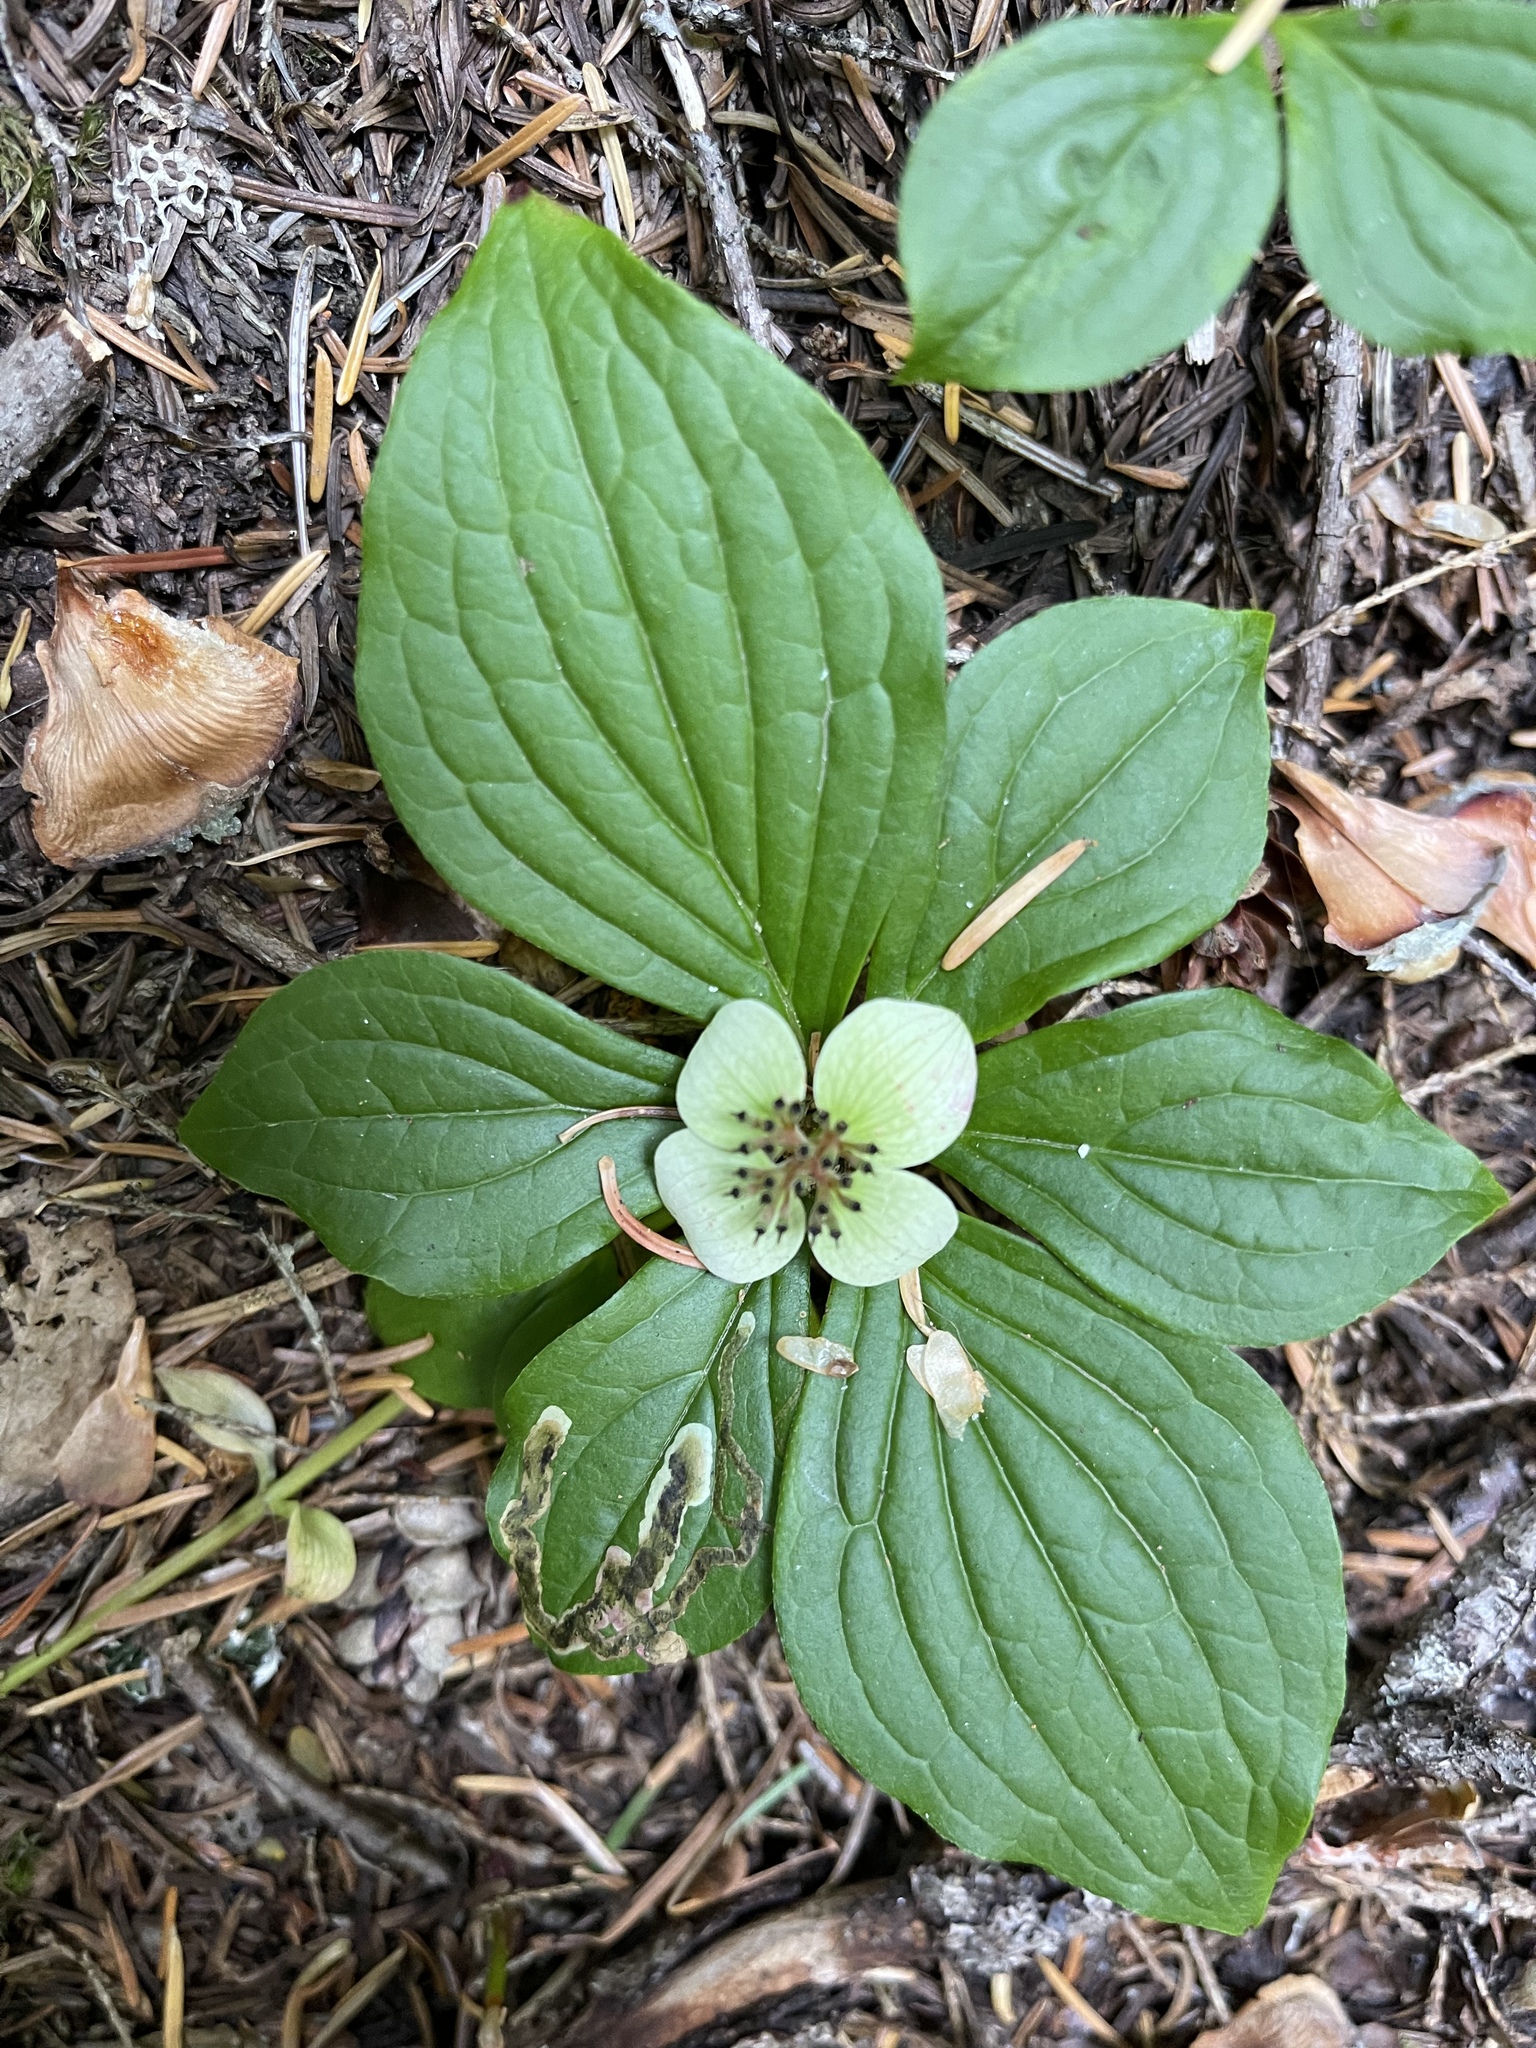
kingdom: Plantae
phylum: Tracheophyta
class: Magnoliopsida
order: Cornales
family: Cornaceae
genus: Cornus
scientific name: Cornus unalaschkensis
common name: Alaska bunchberry
